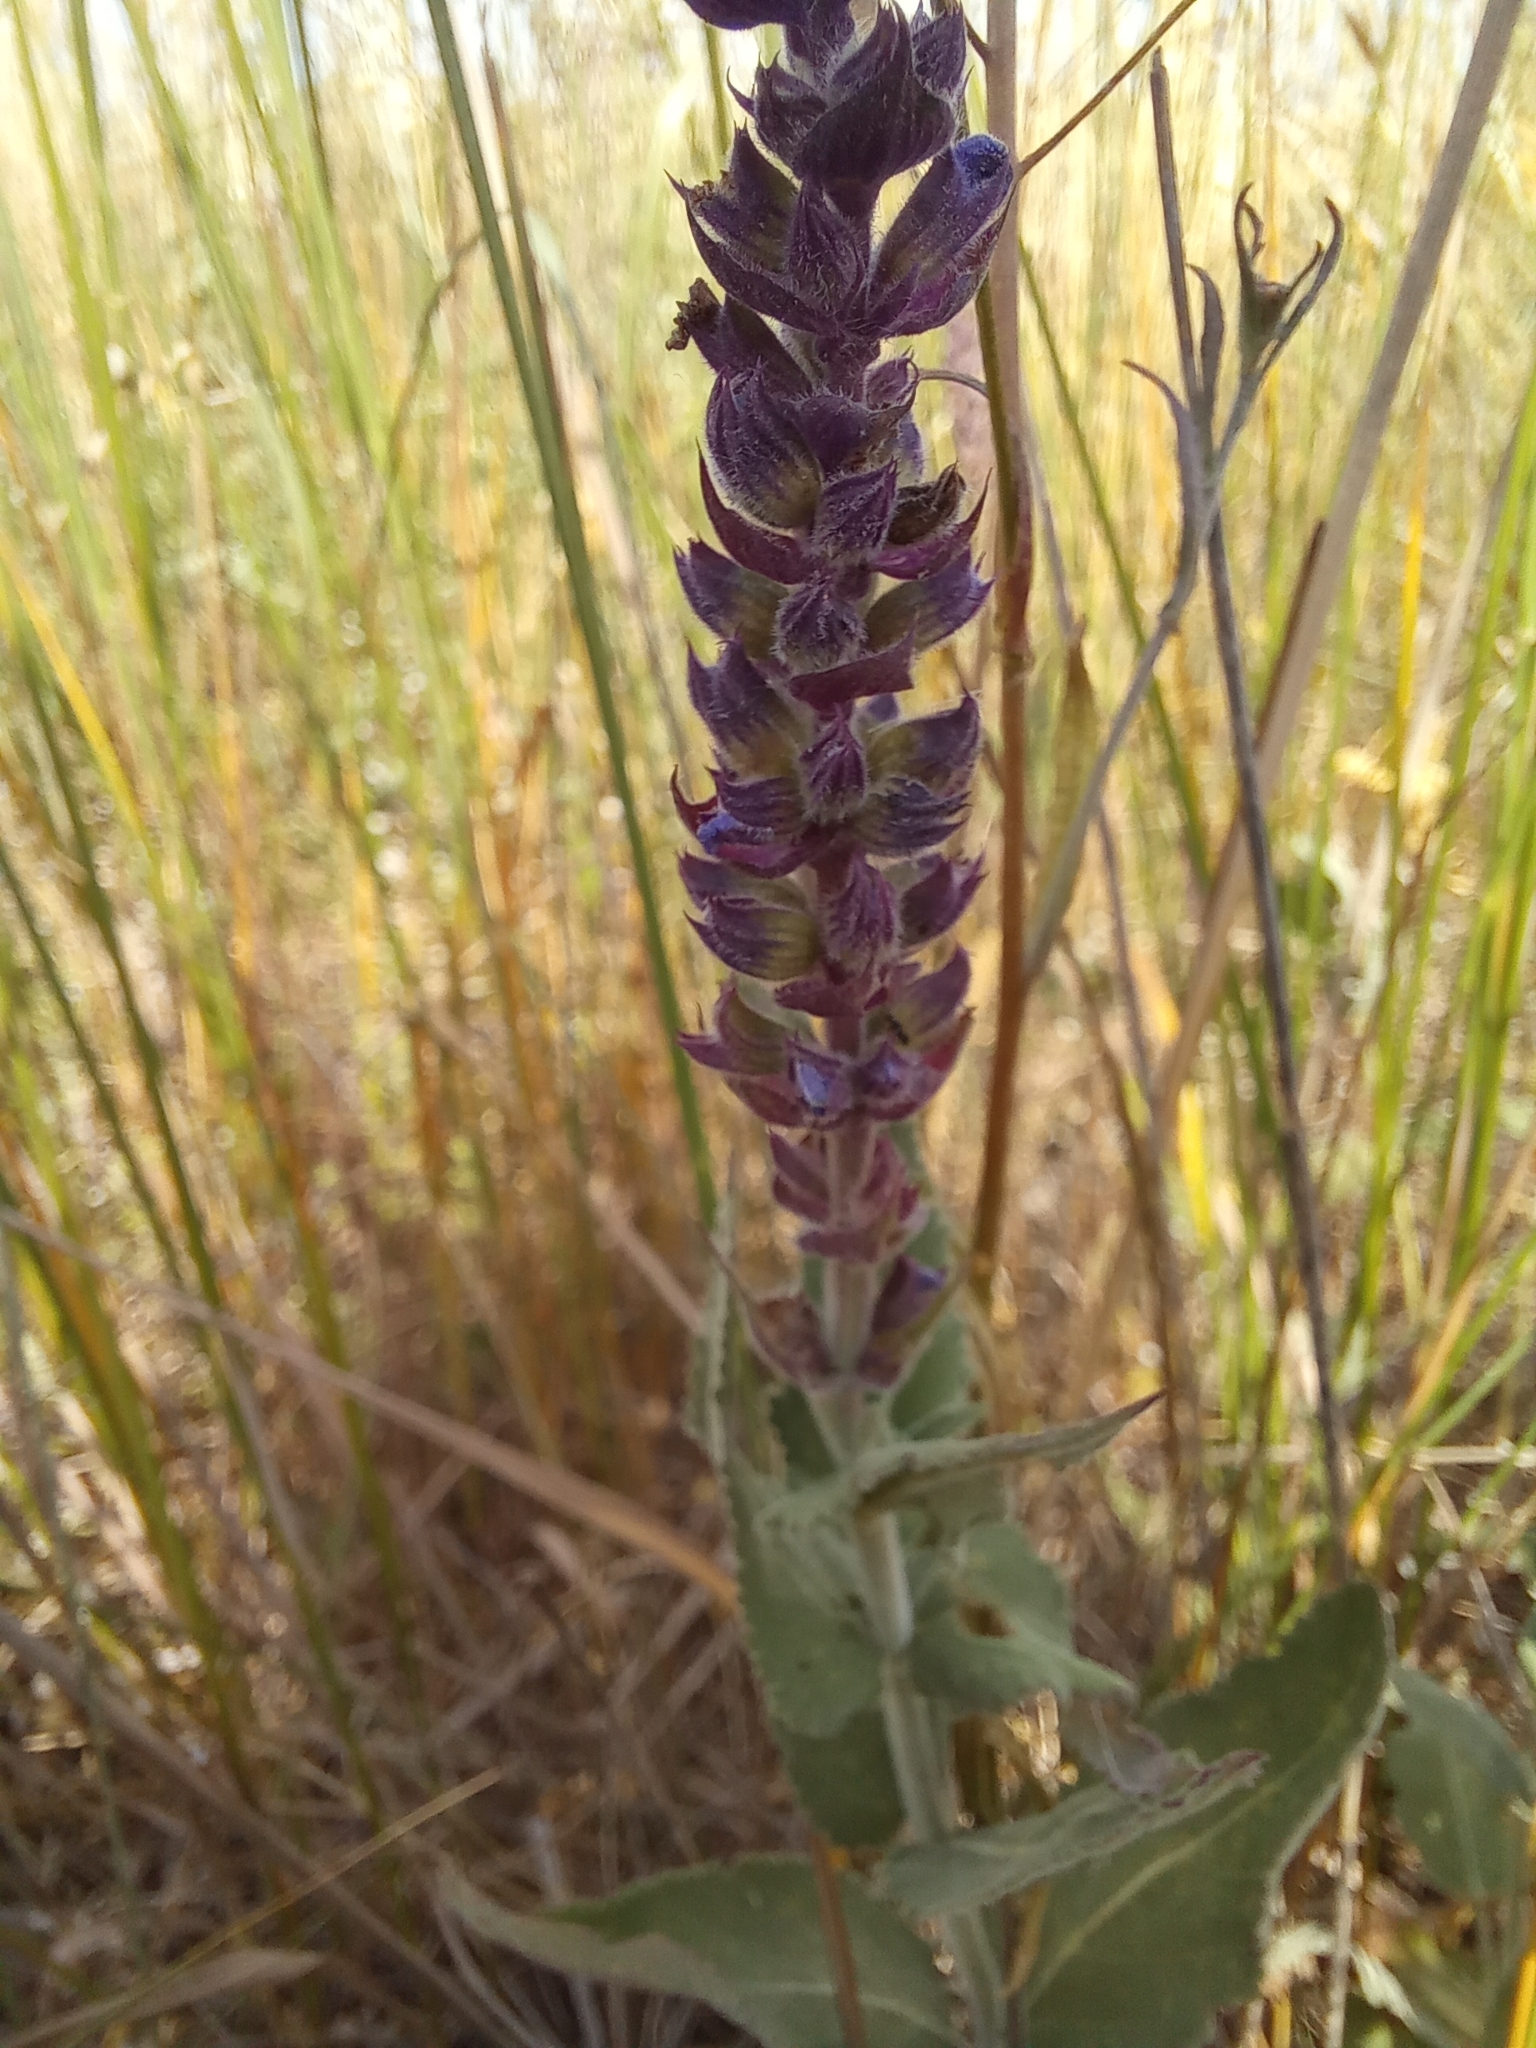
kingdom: Plantae
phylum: Tracheophyta
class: Magnoliopsida
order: Lamiales
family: Lamiaceae
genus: Salvia
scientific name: Salvia nemorosa
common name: Balkan clary
